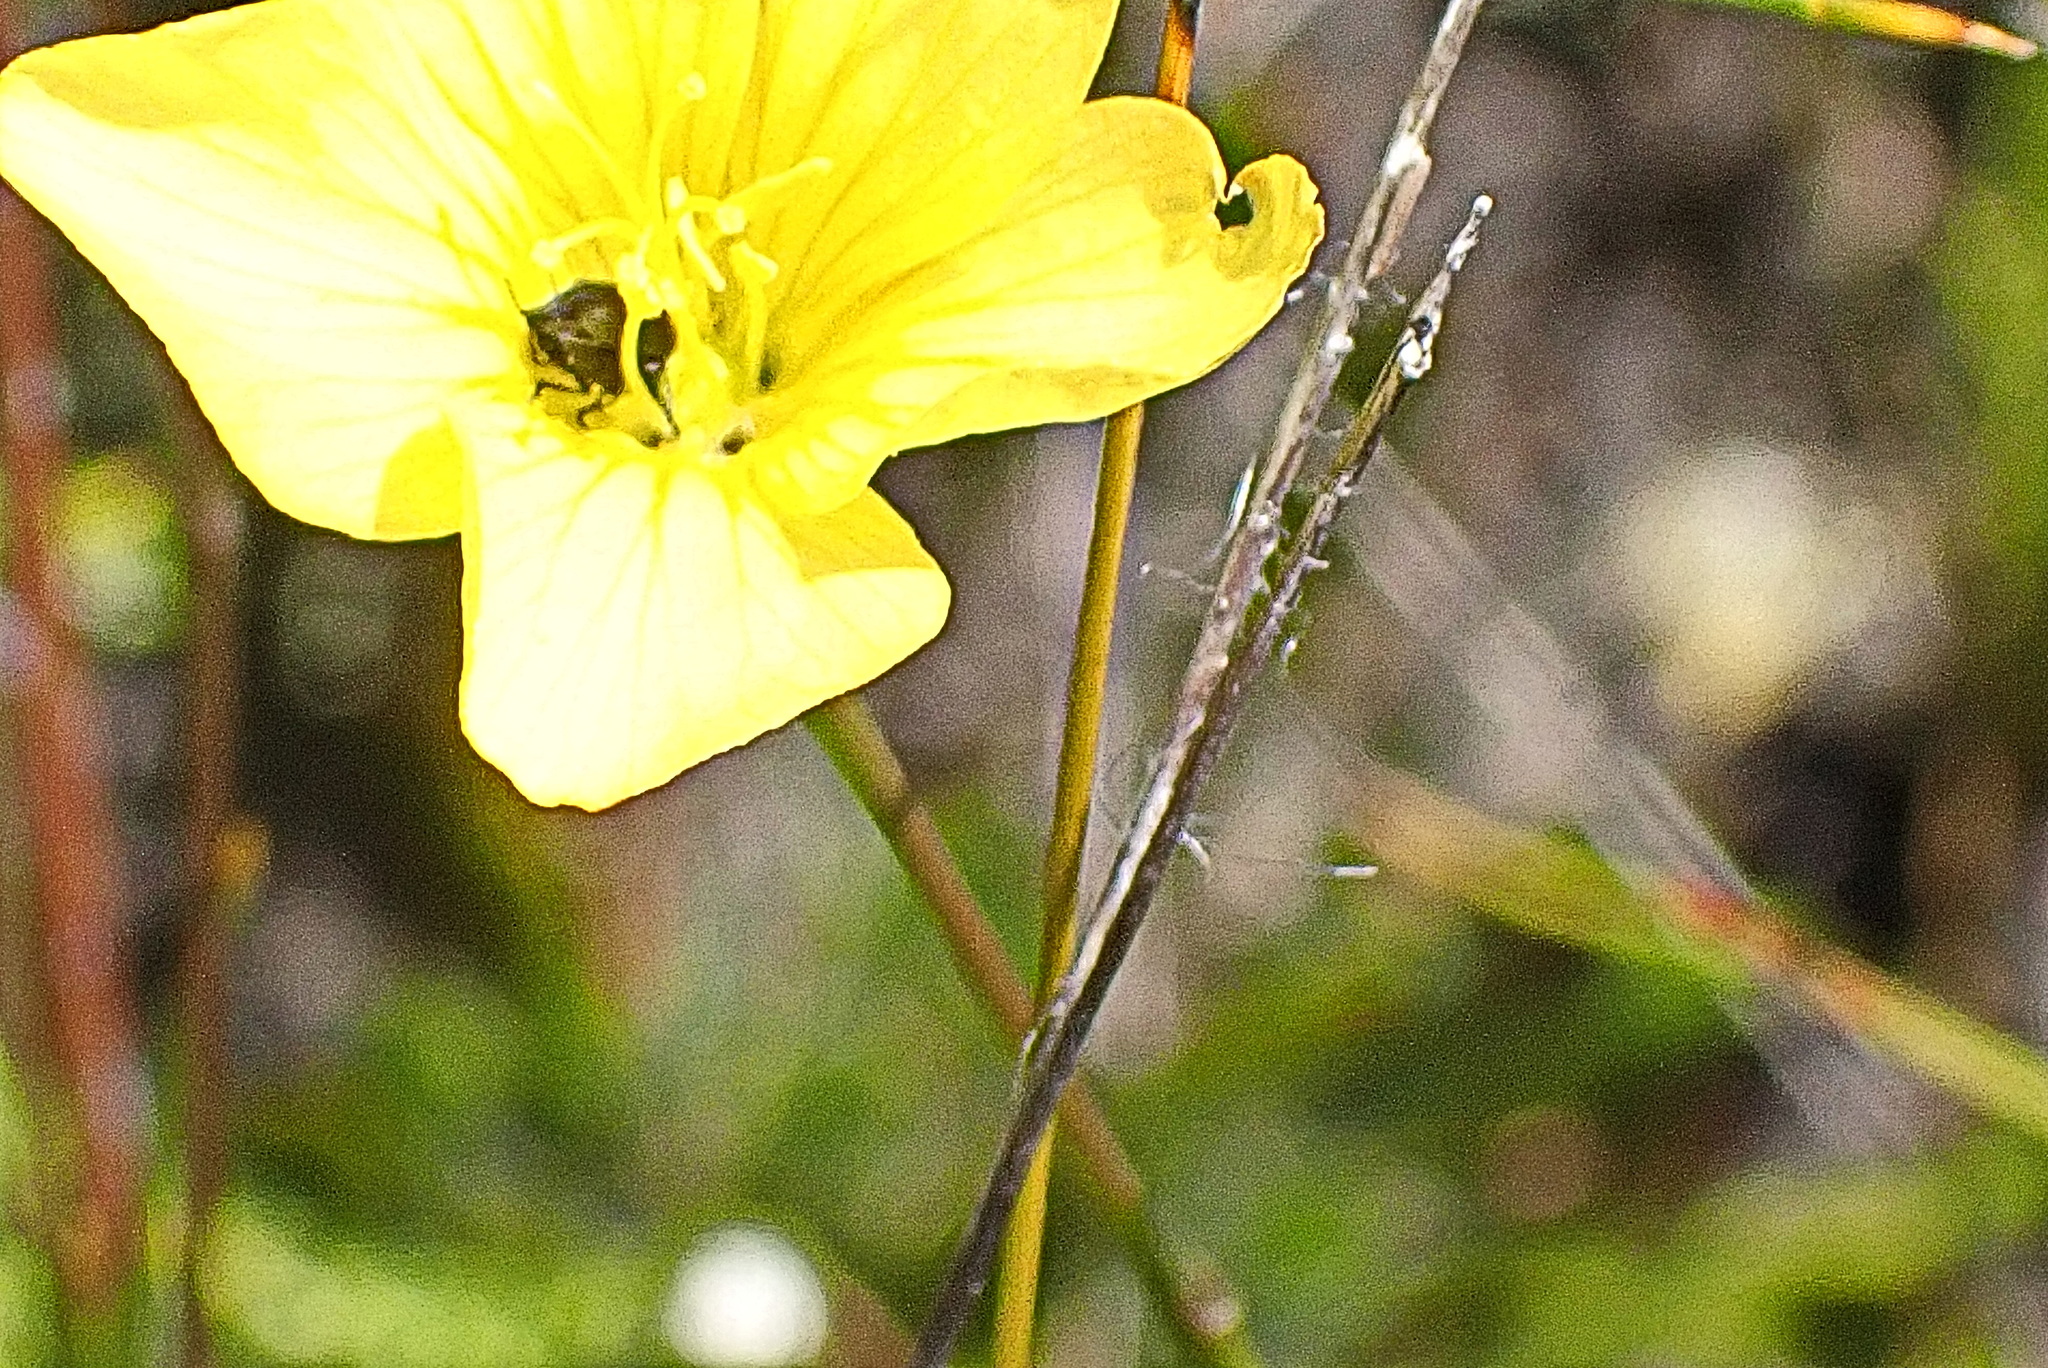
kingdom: Plantae
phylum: Tracheophyta
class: Magnoliopsida
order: Malpighiales
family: Linaceae
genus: Linum
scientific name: Linum africanum
